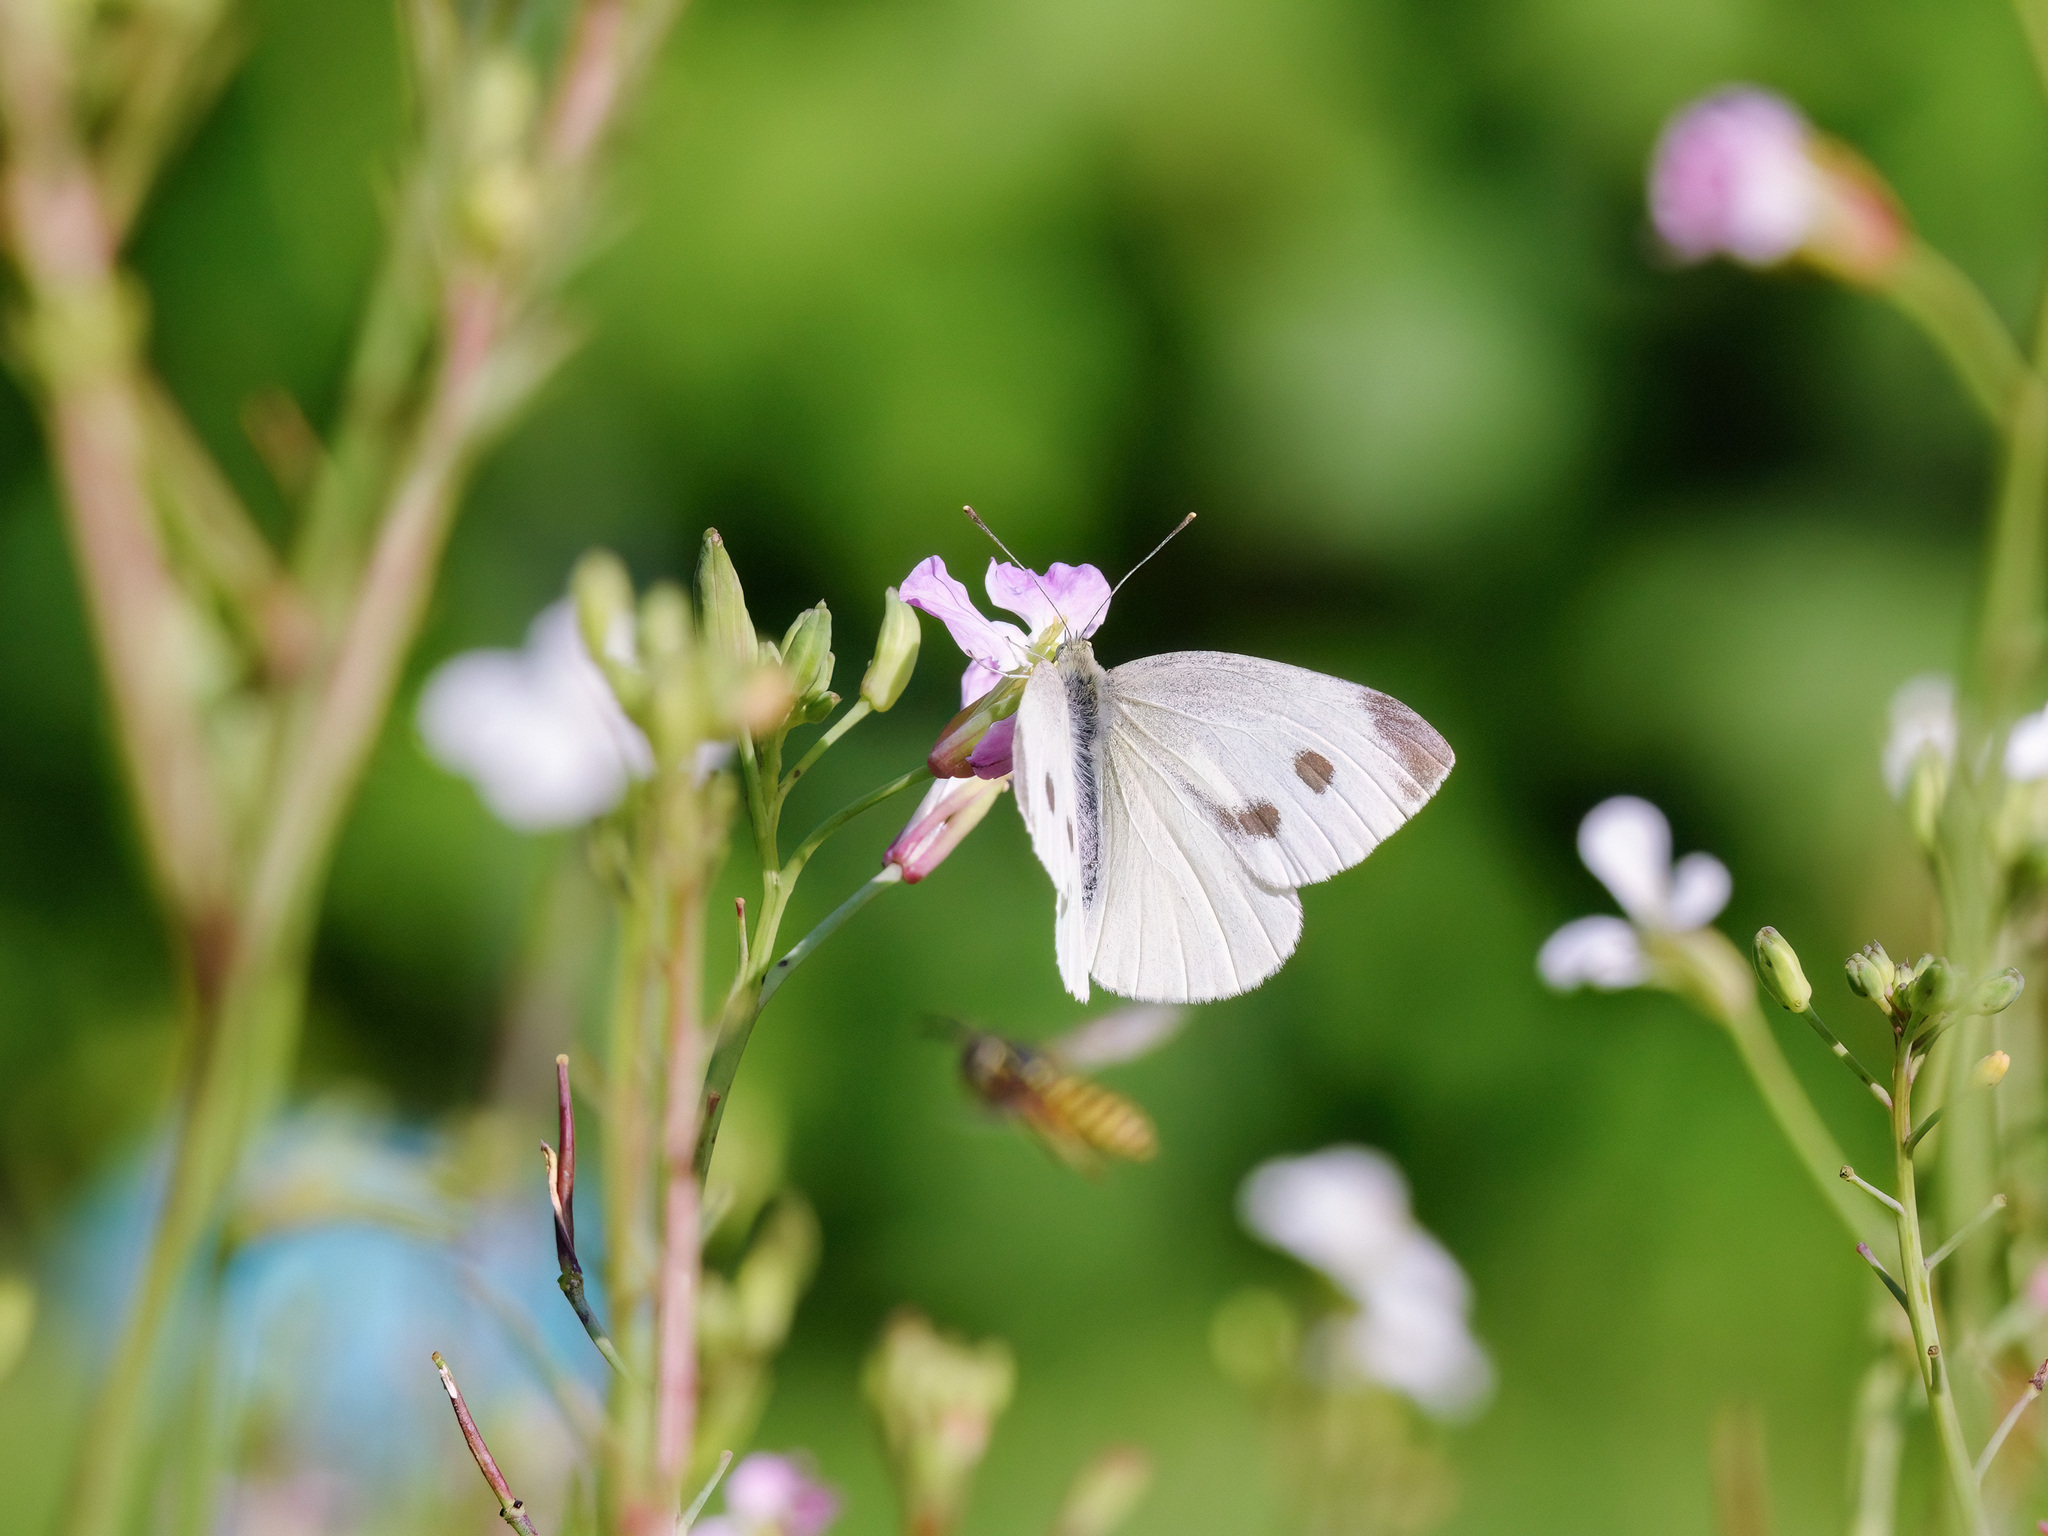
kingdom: Animalia
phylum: Arthropoda
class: Insecta
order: Lepidoptera
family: Pieridae
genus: Pieris
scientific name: Pieris rapae
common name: Small white
